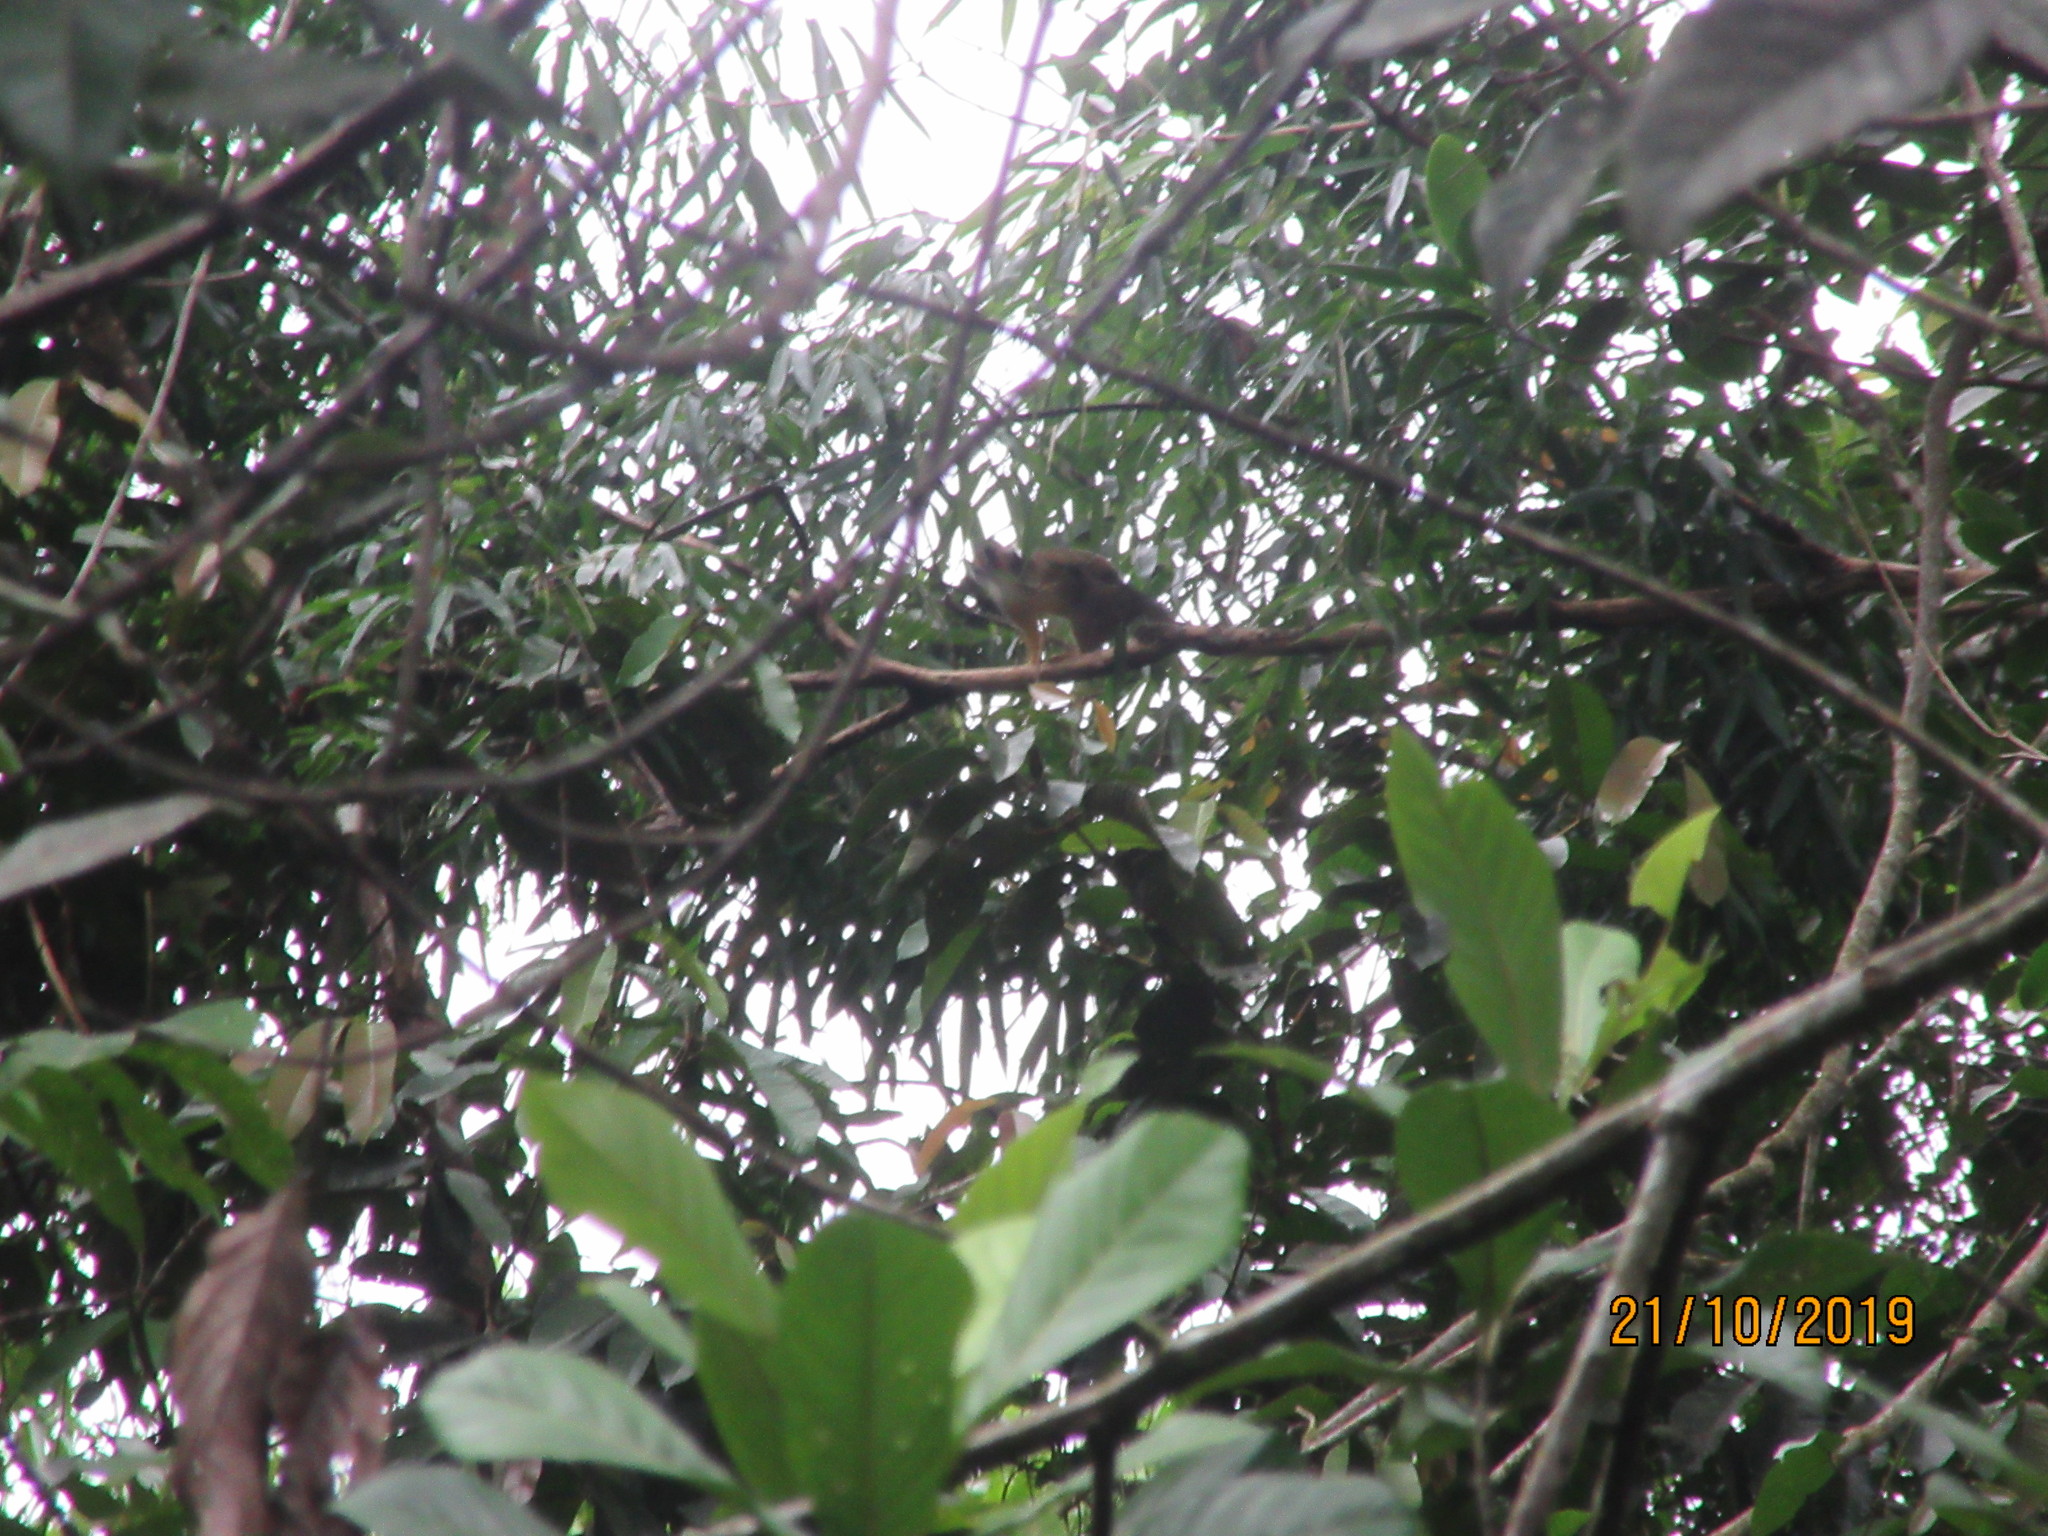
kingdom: Animalia
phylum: Chordata
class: Mammalia
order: Primates
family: Cebidae
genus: Saimiri
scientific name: Saimiri boliviensis
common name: Black-capped squirrel monkey
